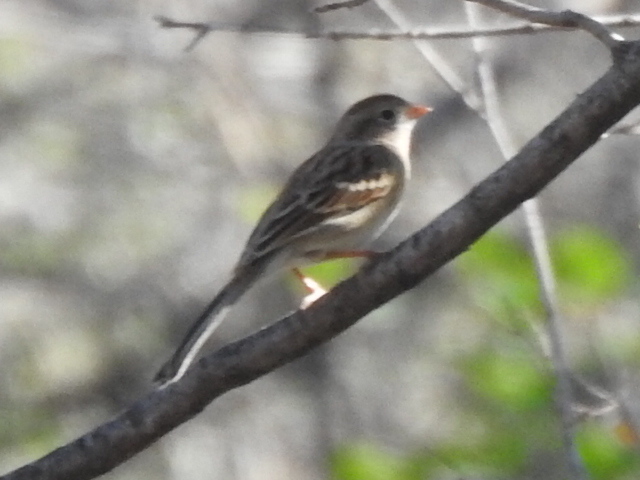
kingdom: Animalia
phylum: Chordata
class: Aves
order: Passeriformes
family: Passerellidae
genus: Spizella
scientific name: Spizella pusilla
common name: Field sparrow
